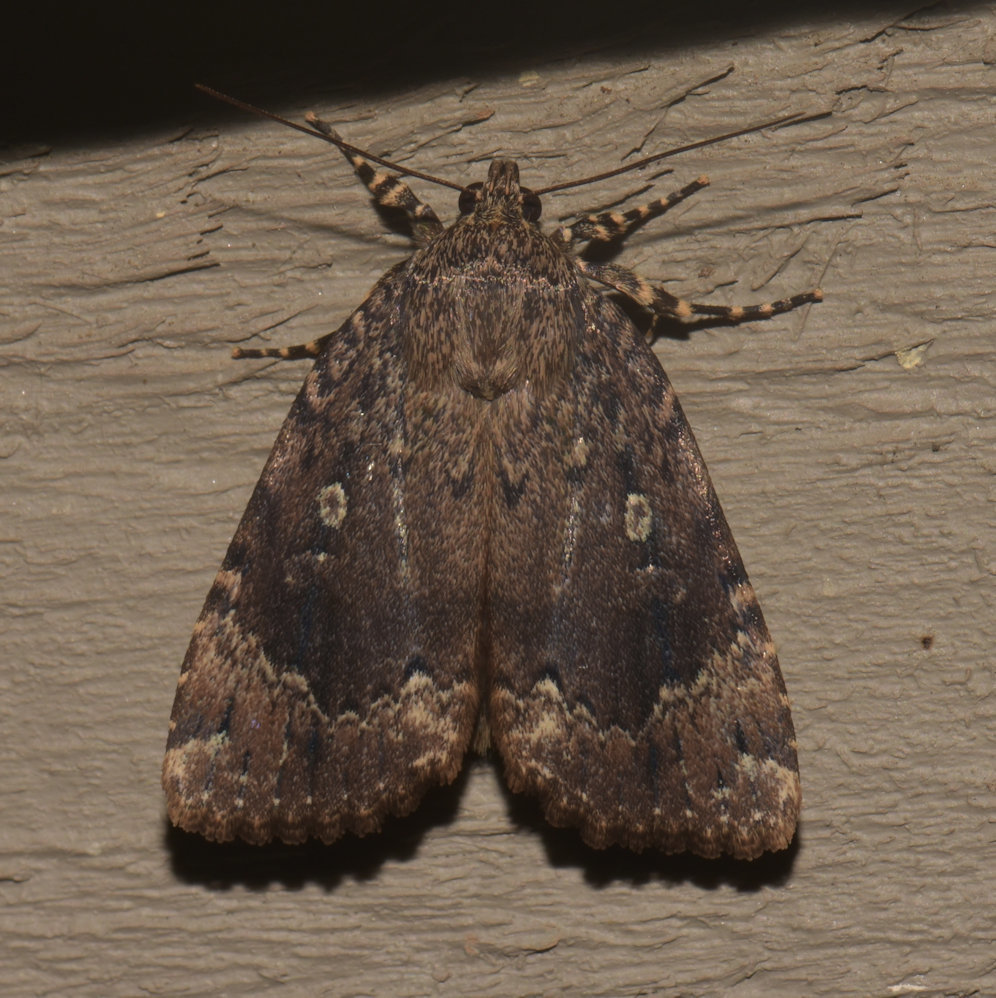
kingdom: Animalia
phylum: Arthropoda
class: Insecta
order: Lepidoptera
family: Noctuidae
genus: Amphipyra
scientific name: Amphipyra pyramidoides
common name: American copper underwing
